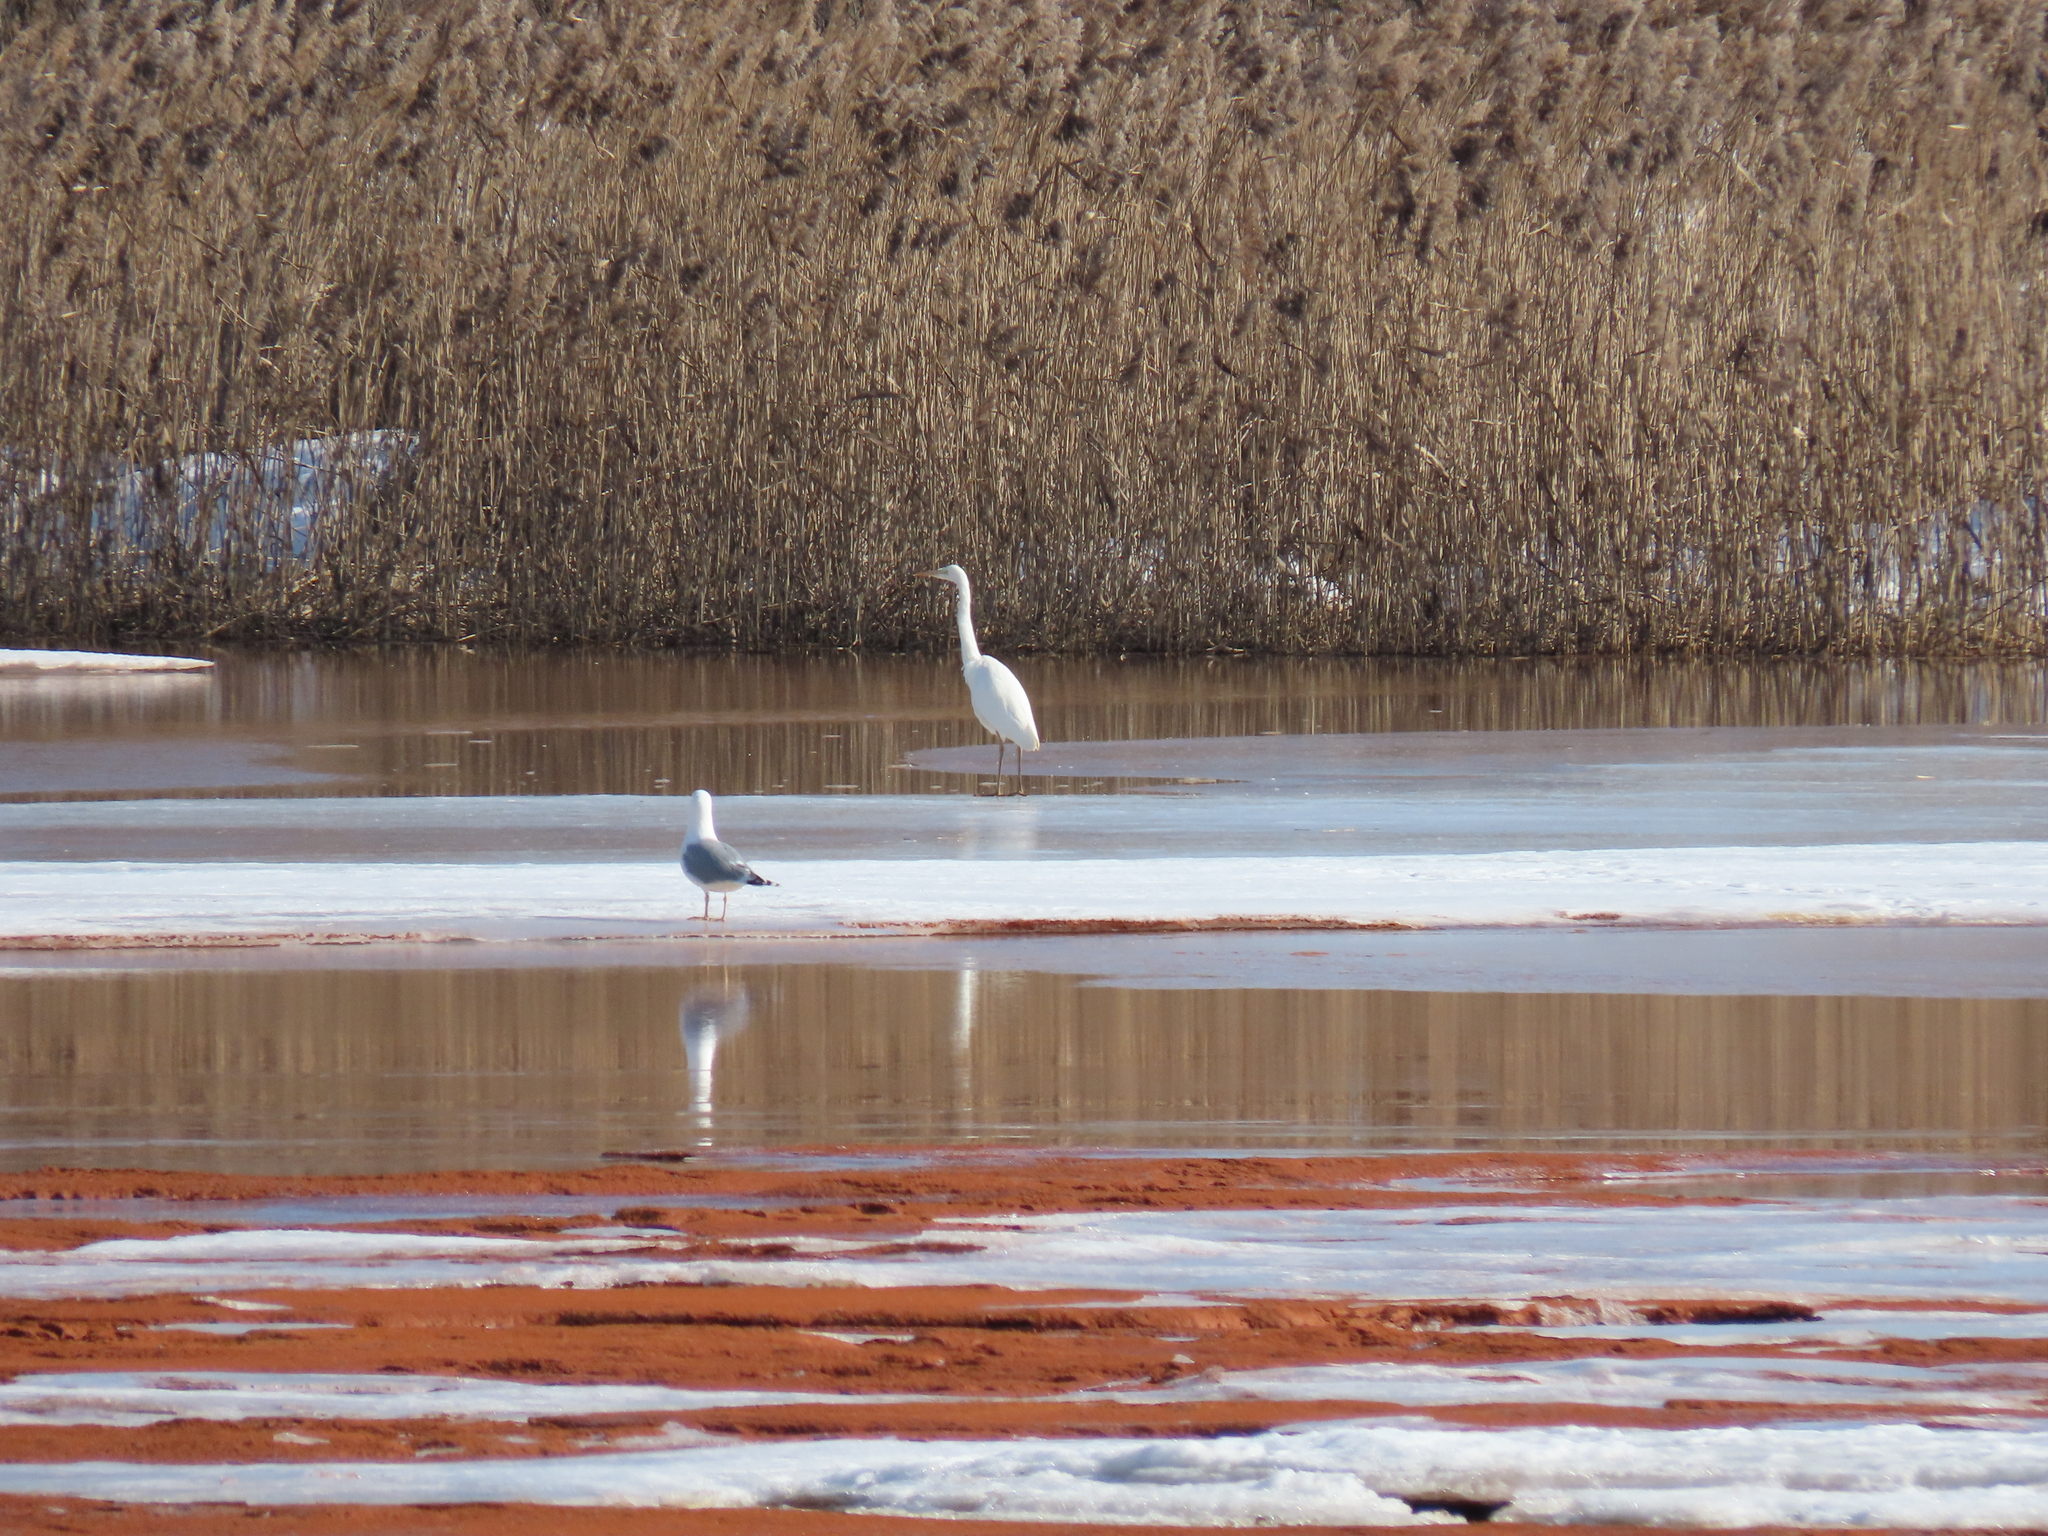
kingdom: Animalia
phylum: Chordata
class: Aves
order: Pelecaniformes
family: Ardeidae
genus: Ardea
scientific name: Ardea alba
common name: Great egret
